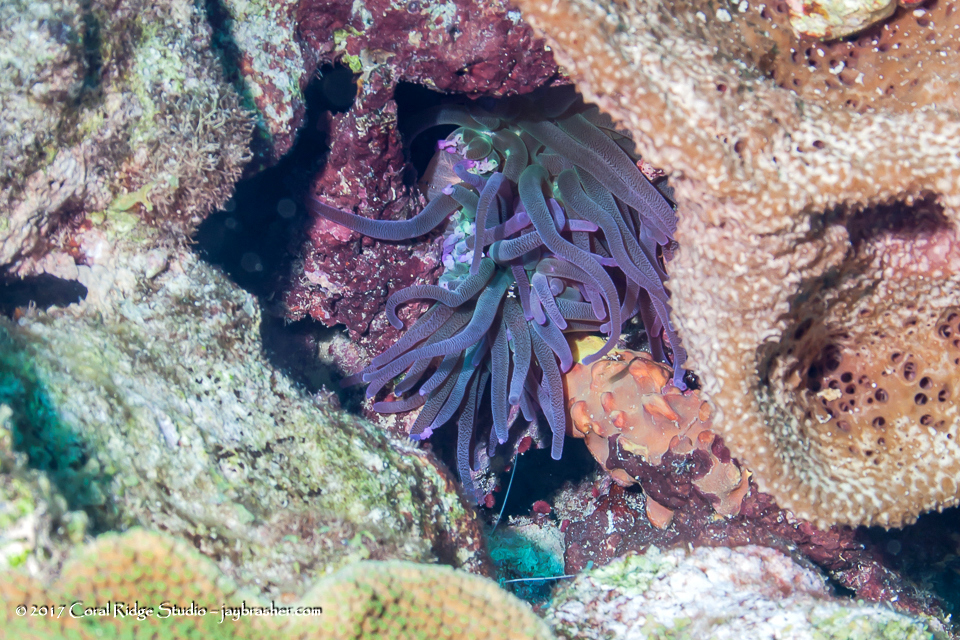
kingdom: Animalia
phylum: Cnidaria
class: Anthozoa
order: Actiniaria
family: Actiniidae
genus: Condylactis
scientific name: Condylactis gigantea
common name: Giant caribbean anemone
